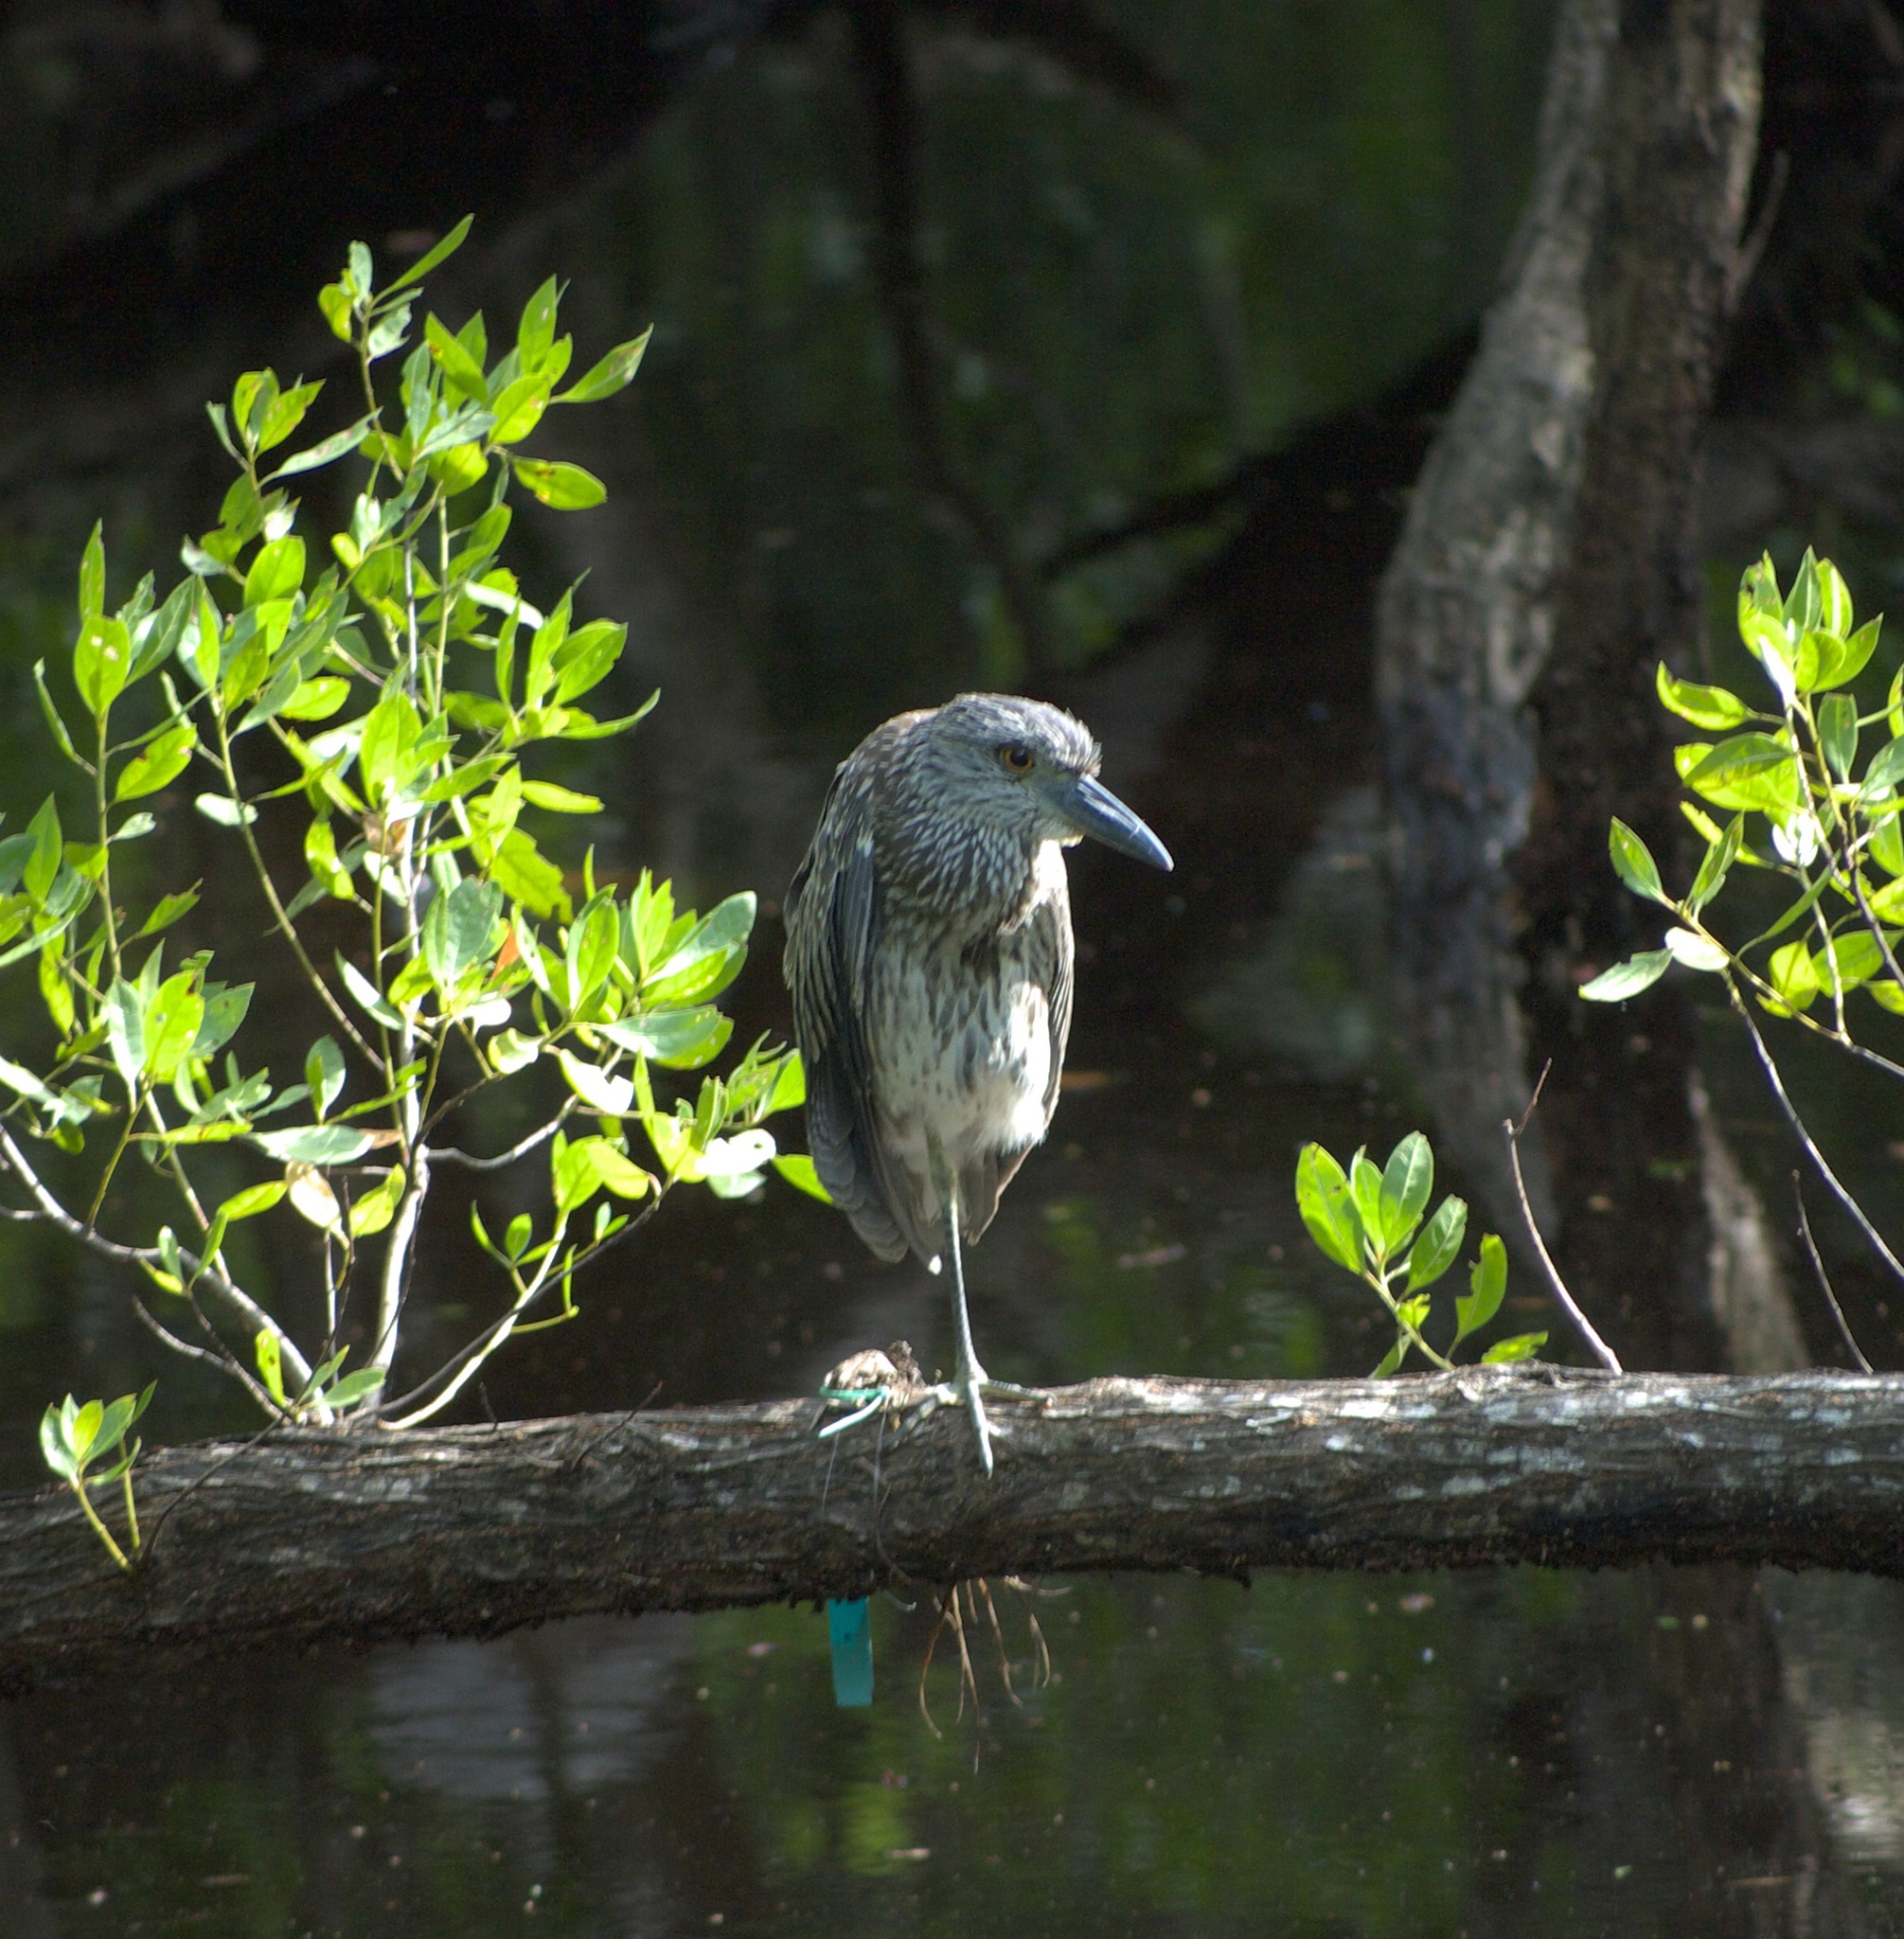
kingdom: Animalia
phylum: Chordata
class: Aves
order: Pelecaniformes
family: Ardeidae
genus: Nyctanassa
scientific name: Nyctanassa violacea
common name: Yellow-crowned night heron
